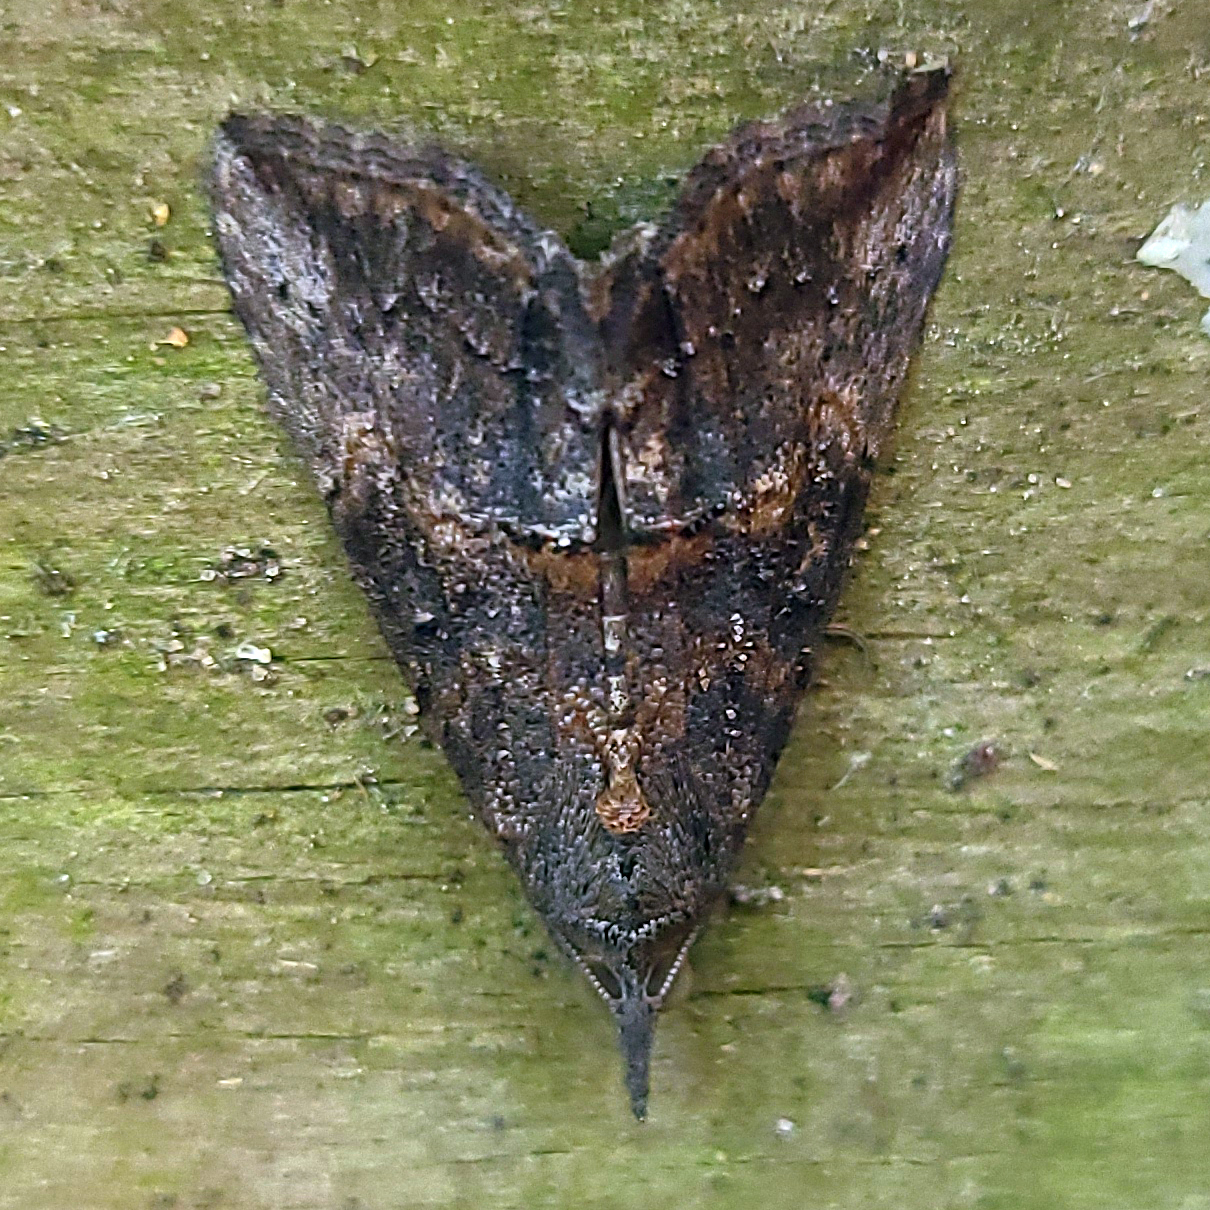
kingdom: Animalia
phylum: Arthropoda
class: Insecta
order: Lepidoptera
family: Erebidae
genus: Hypena
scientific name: Hypena scabra
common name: Green cloverworm
